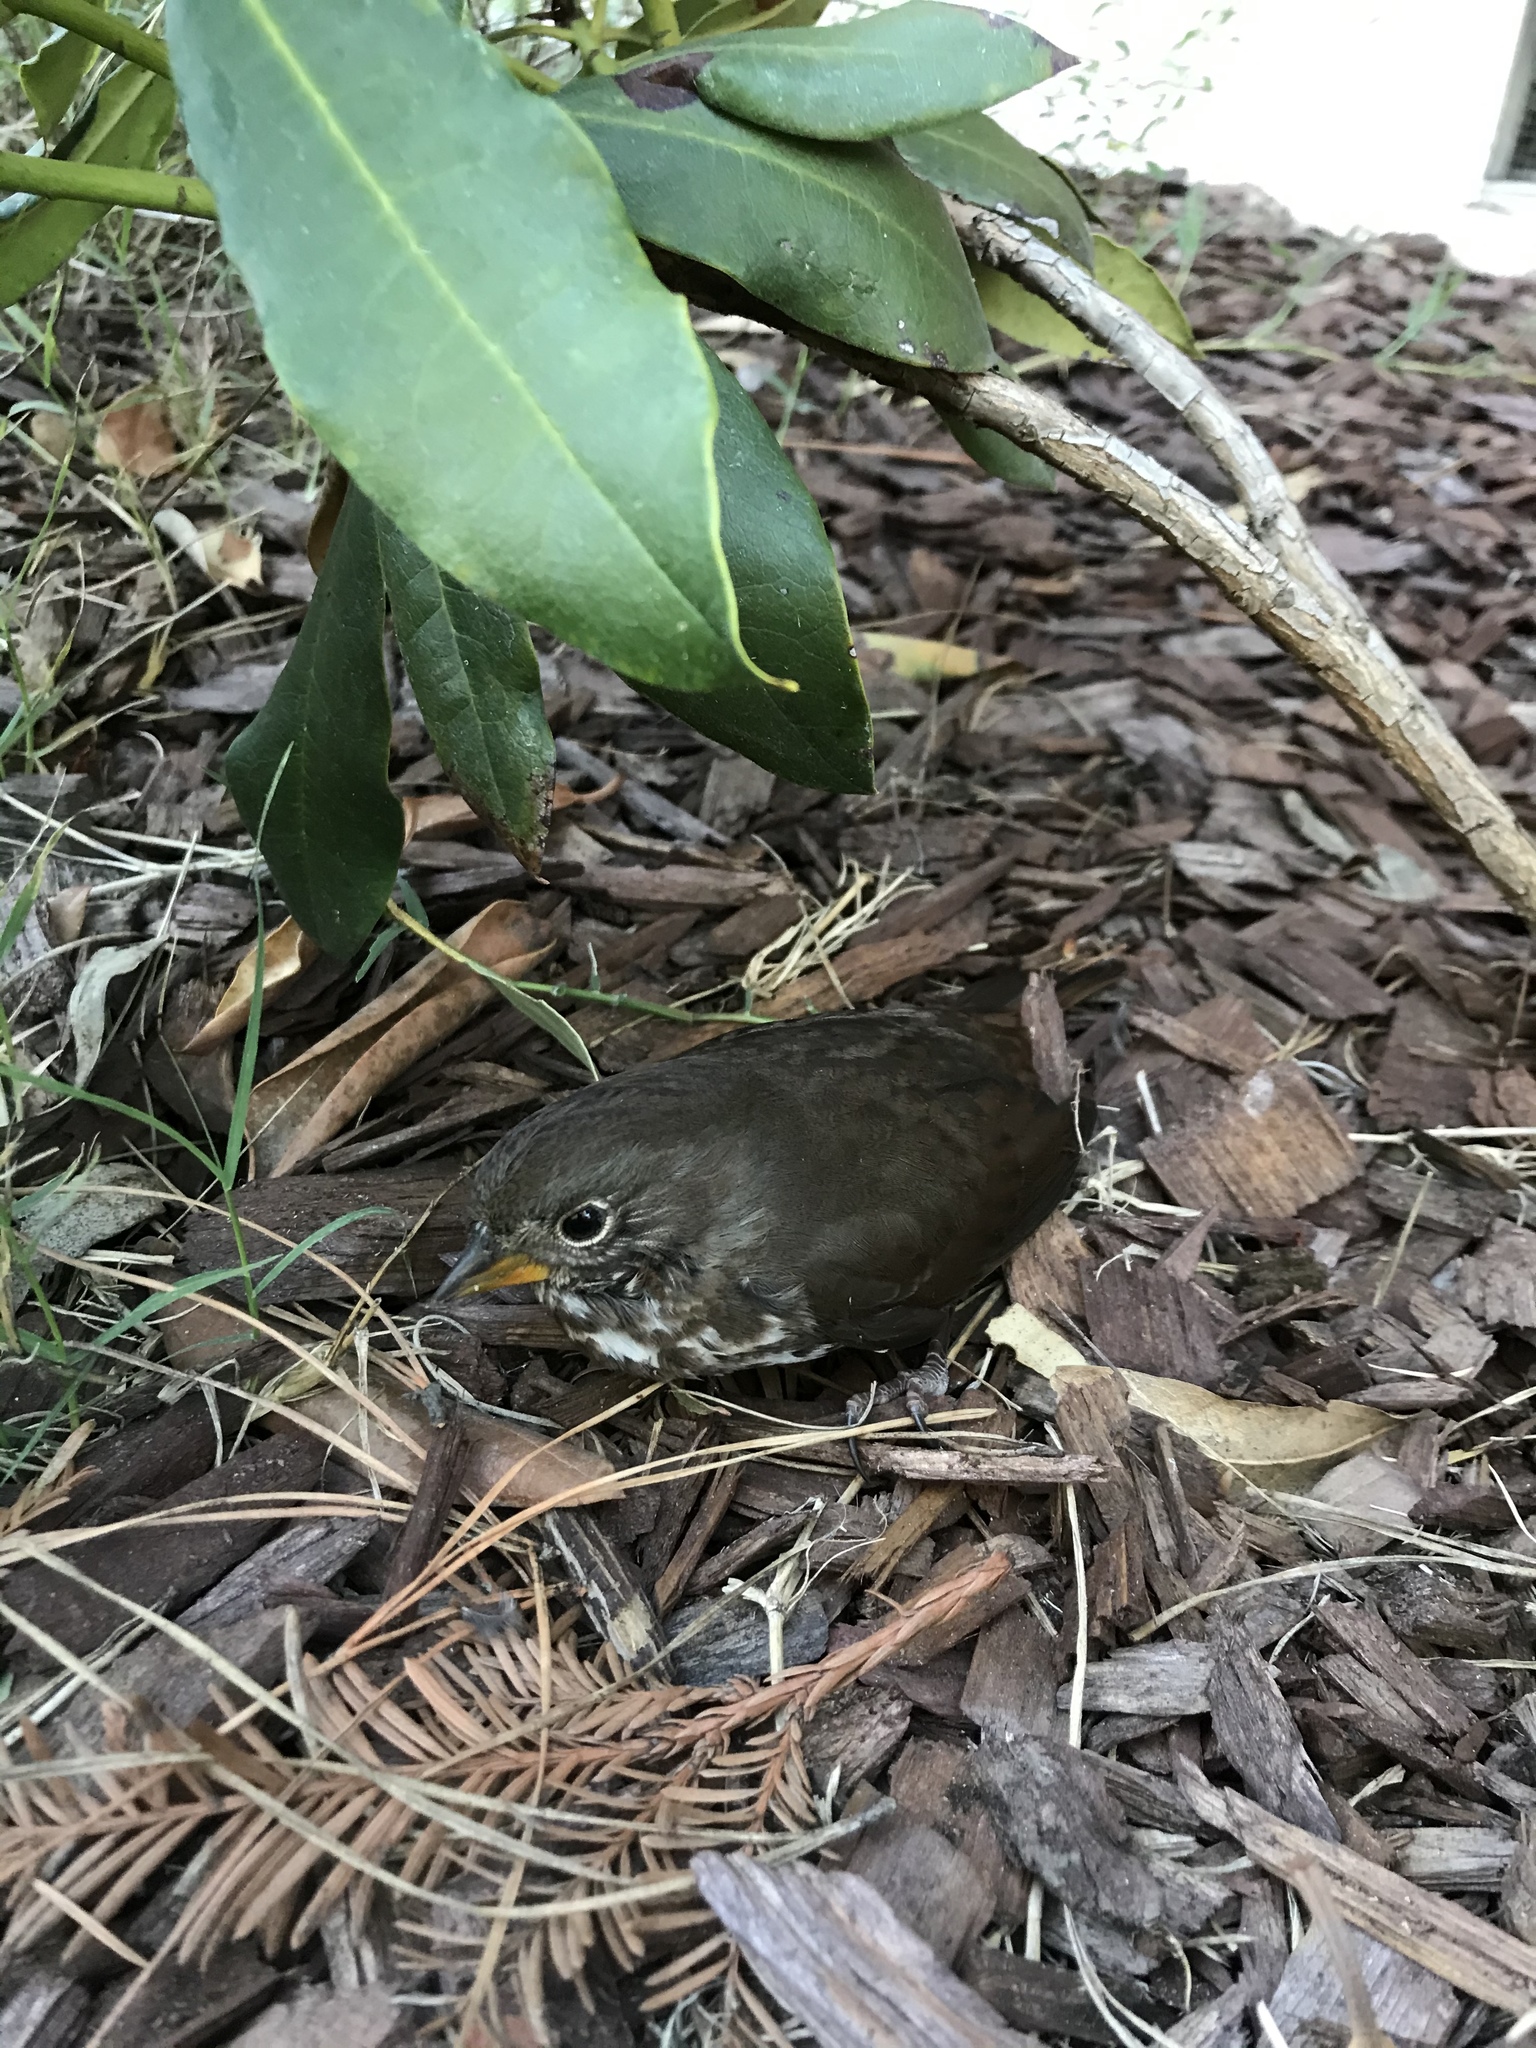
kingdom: Animalia
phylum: Chordata
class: Aves
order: Passeriformes
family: Passerellidae
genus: Passerella
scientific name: Passerella iliaca
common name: Fox sparrow
